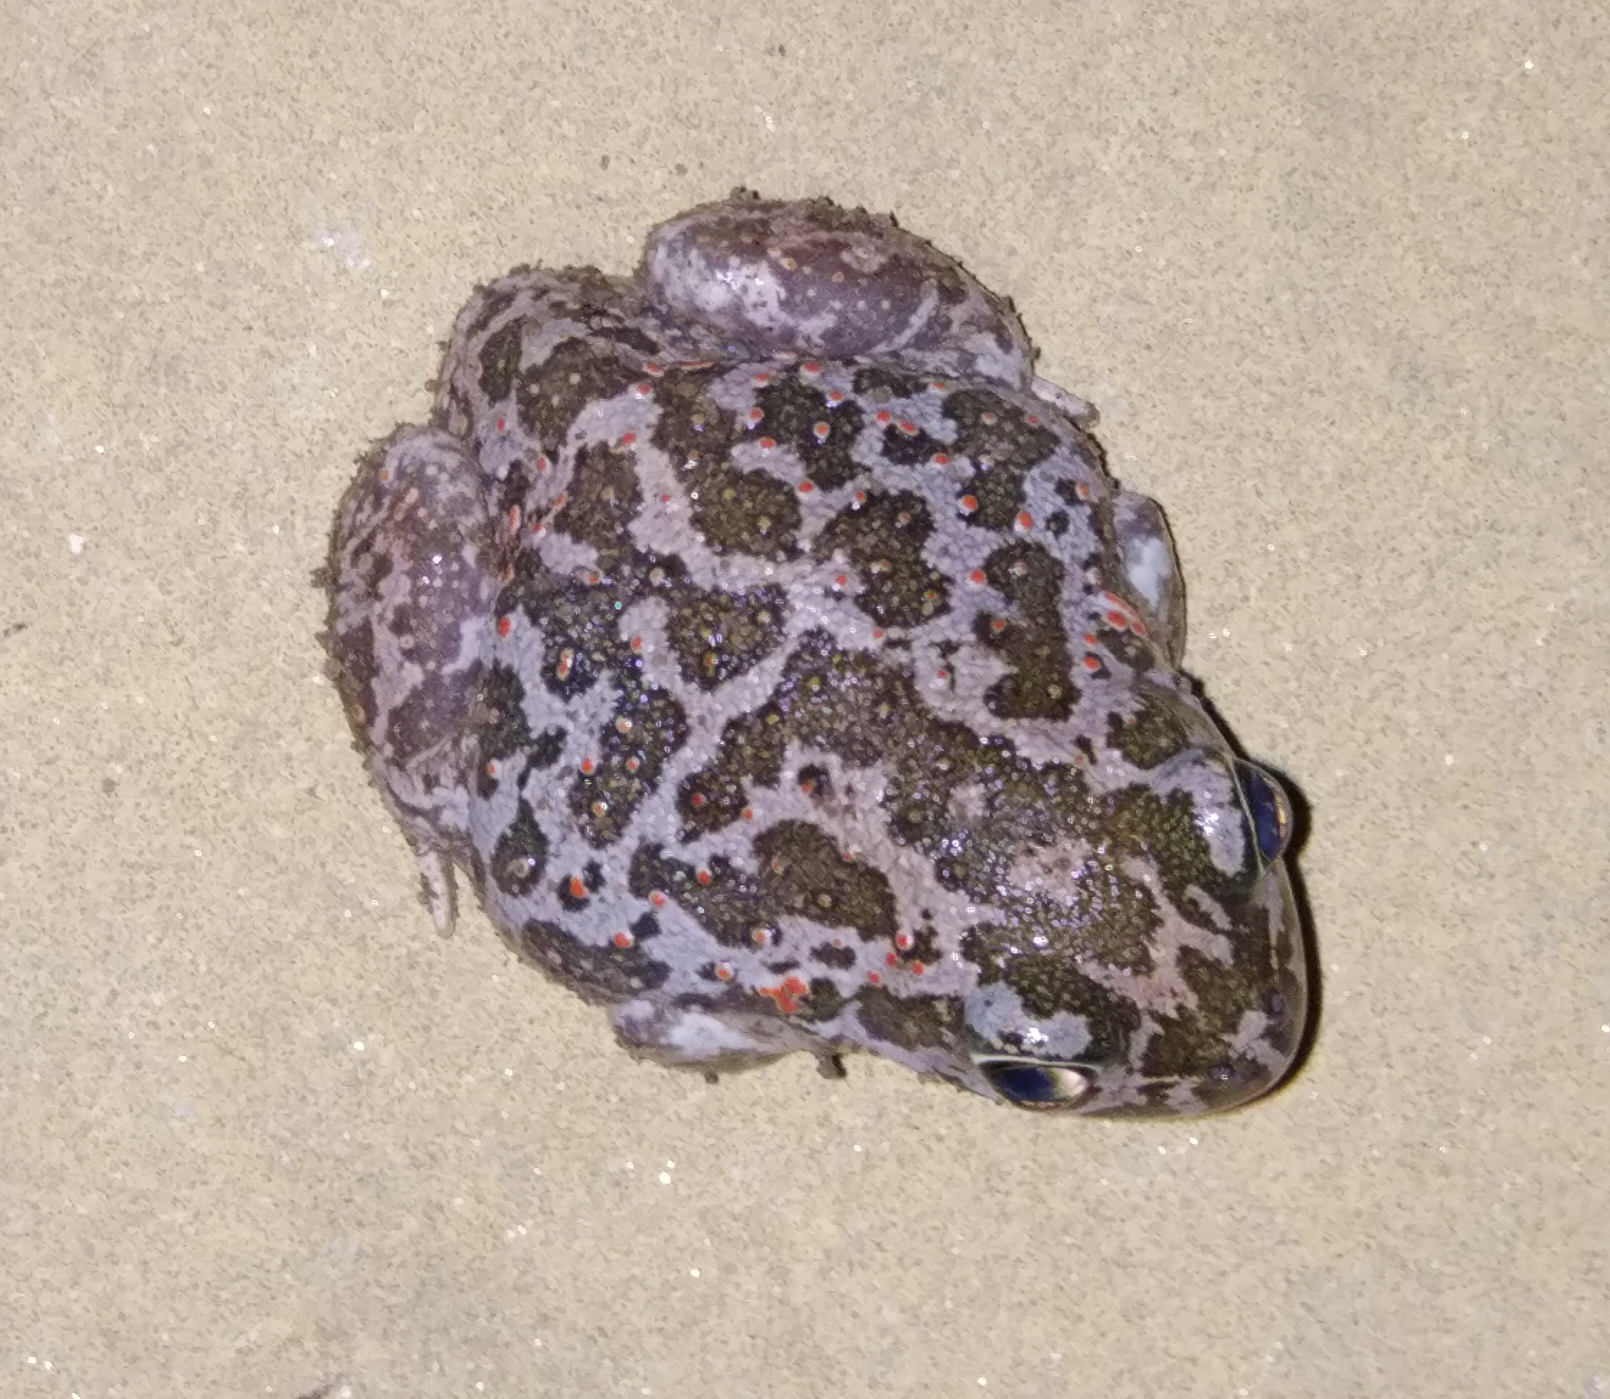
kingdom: Animalia
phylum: Chordata
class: Amphibia
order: Anura
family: Pelobatidae
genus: Pelobates
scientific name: Pelobates balcanicus
